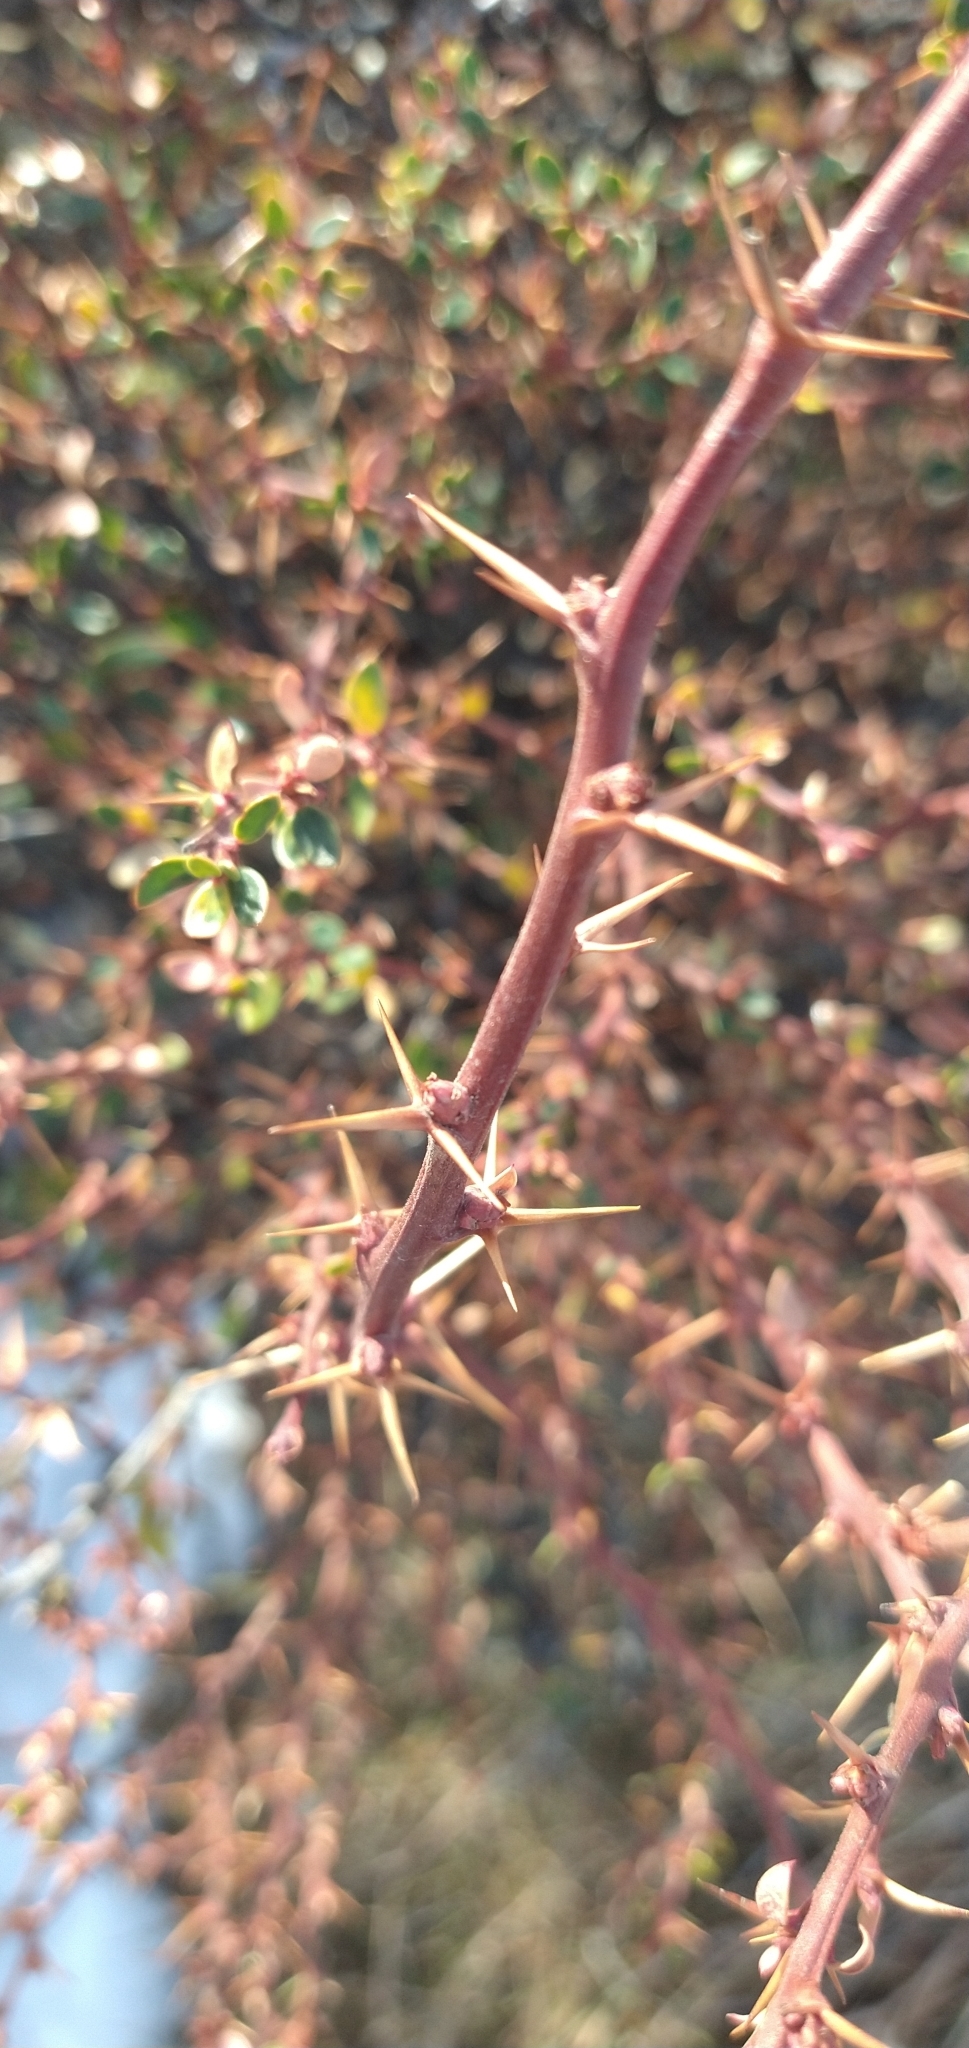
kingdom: Plantae
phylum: Tracheophyta
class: Magnoliopsida
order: Ranunculales
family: Berberidaceae
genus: Berberis
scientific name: Berberis microphylla
